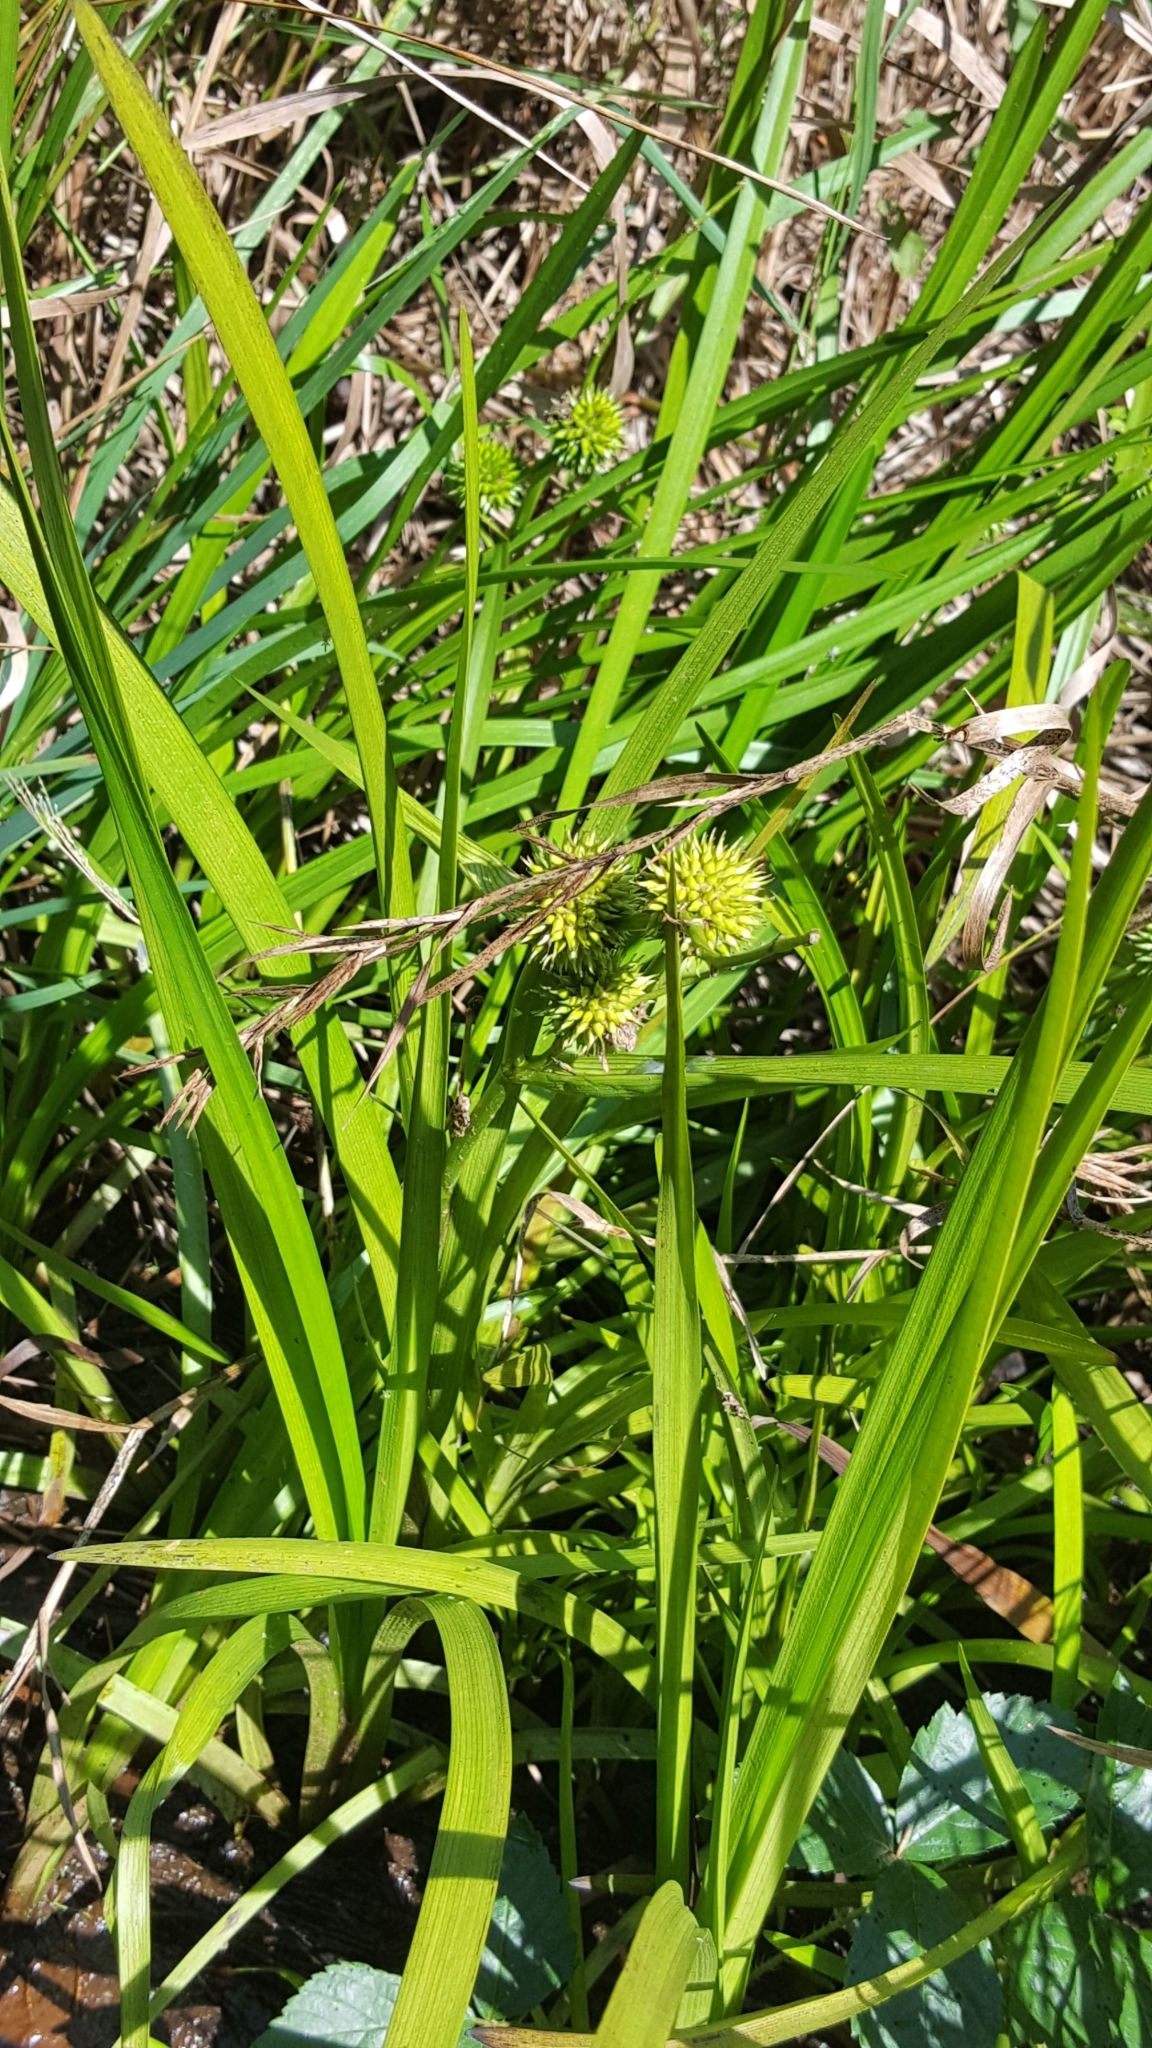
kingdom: Plantae
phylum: Tracheophyta
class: Liliopsida
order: Poales
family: Typhaceae
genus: Sparganium
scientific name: Sparganium americanum
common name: American burreed
